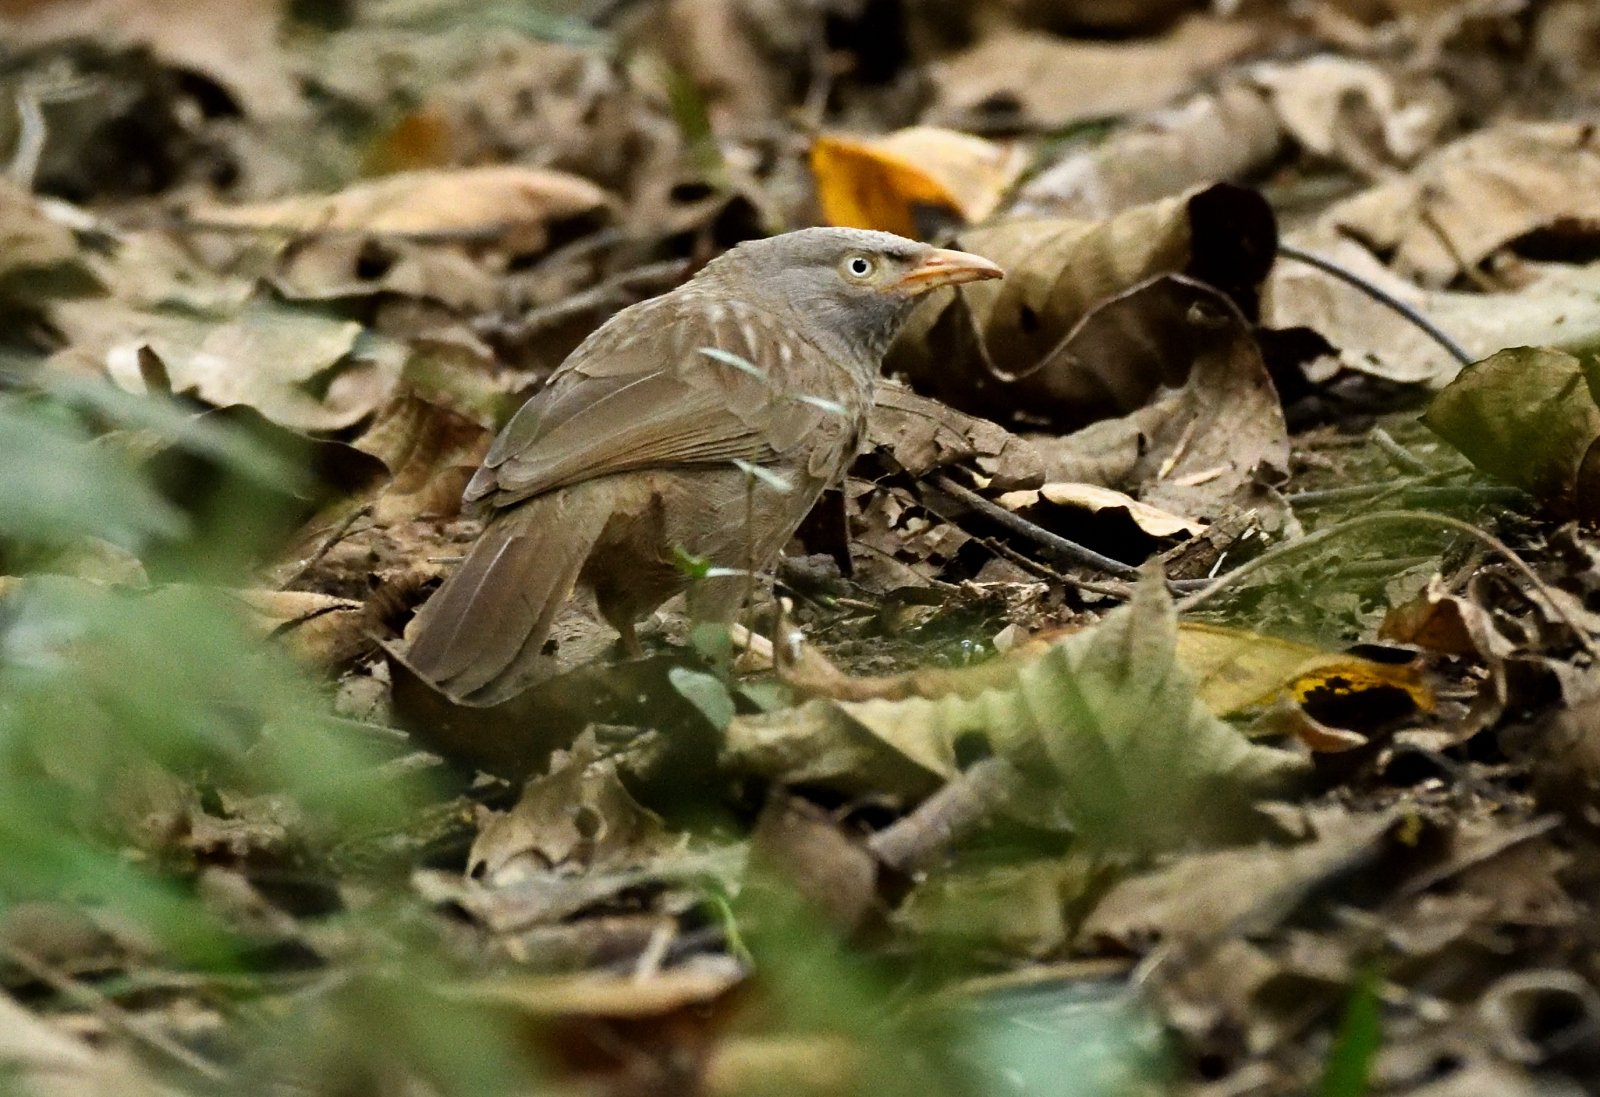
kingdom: Animalia
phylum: Chordata
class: Aves
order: Passeriformes
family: Leiothrichidae
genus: Turdoides
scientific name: Turdoides striata
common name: Jungle babbler
